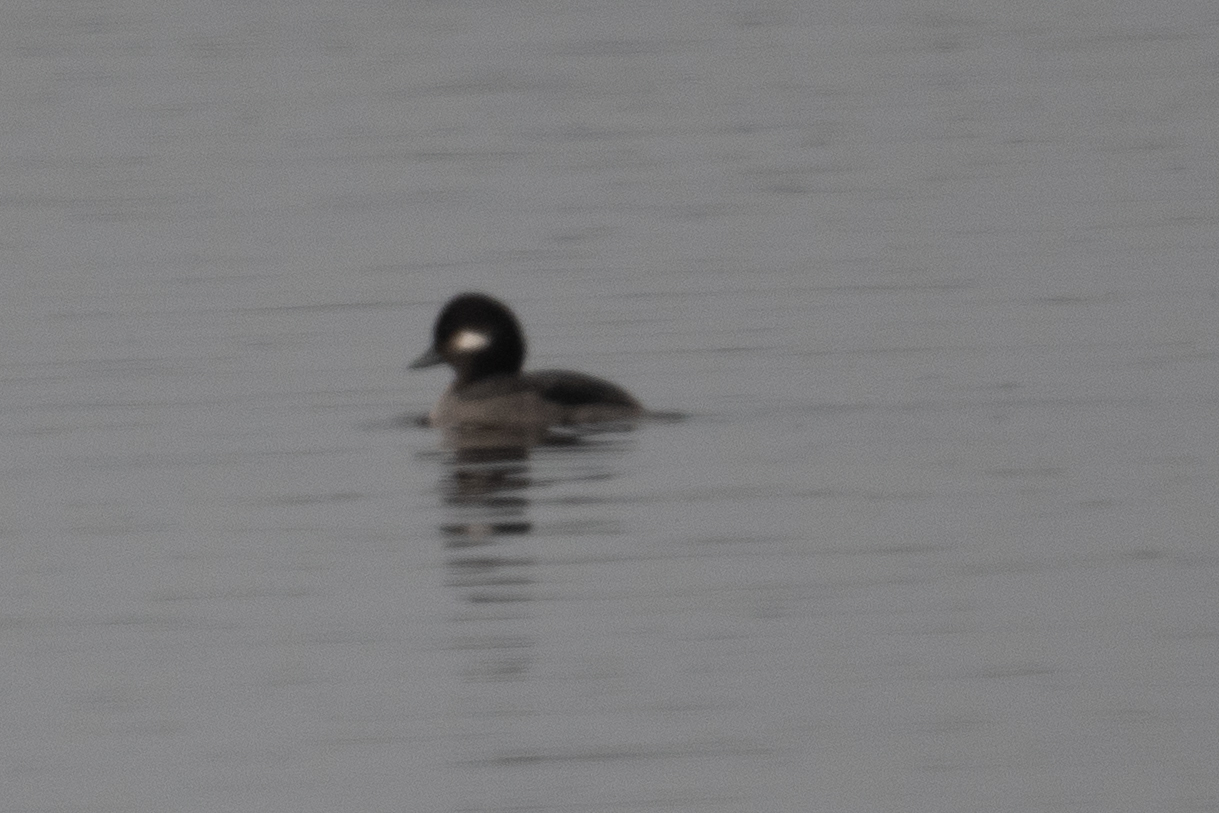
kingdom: Animalia
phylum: Chordata
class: Aves
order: Anseriformes
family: Anatidae
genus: Bucephala
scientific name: Bucephala albeola
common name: Bufflehead
